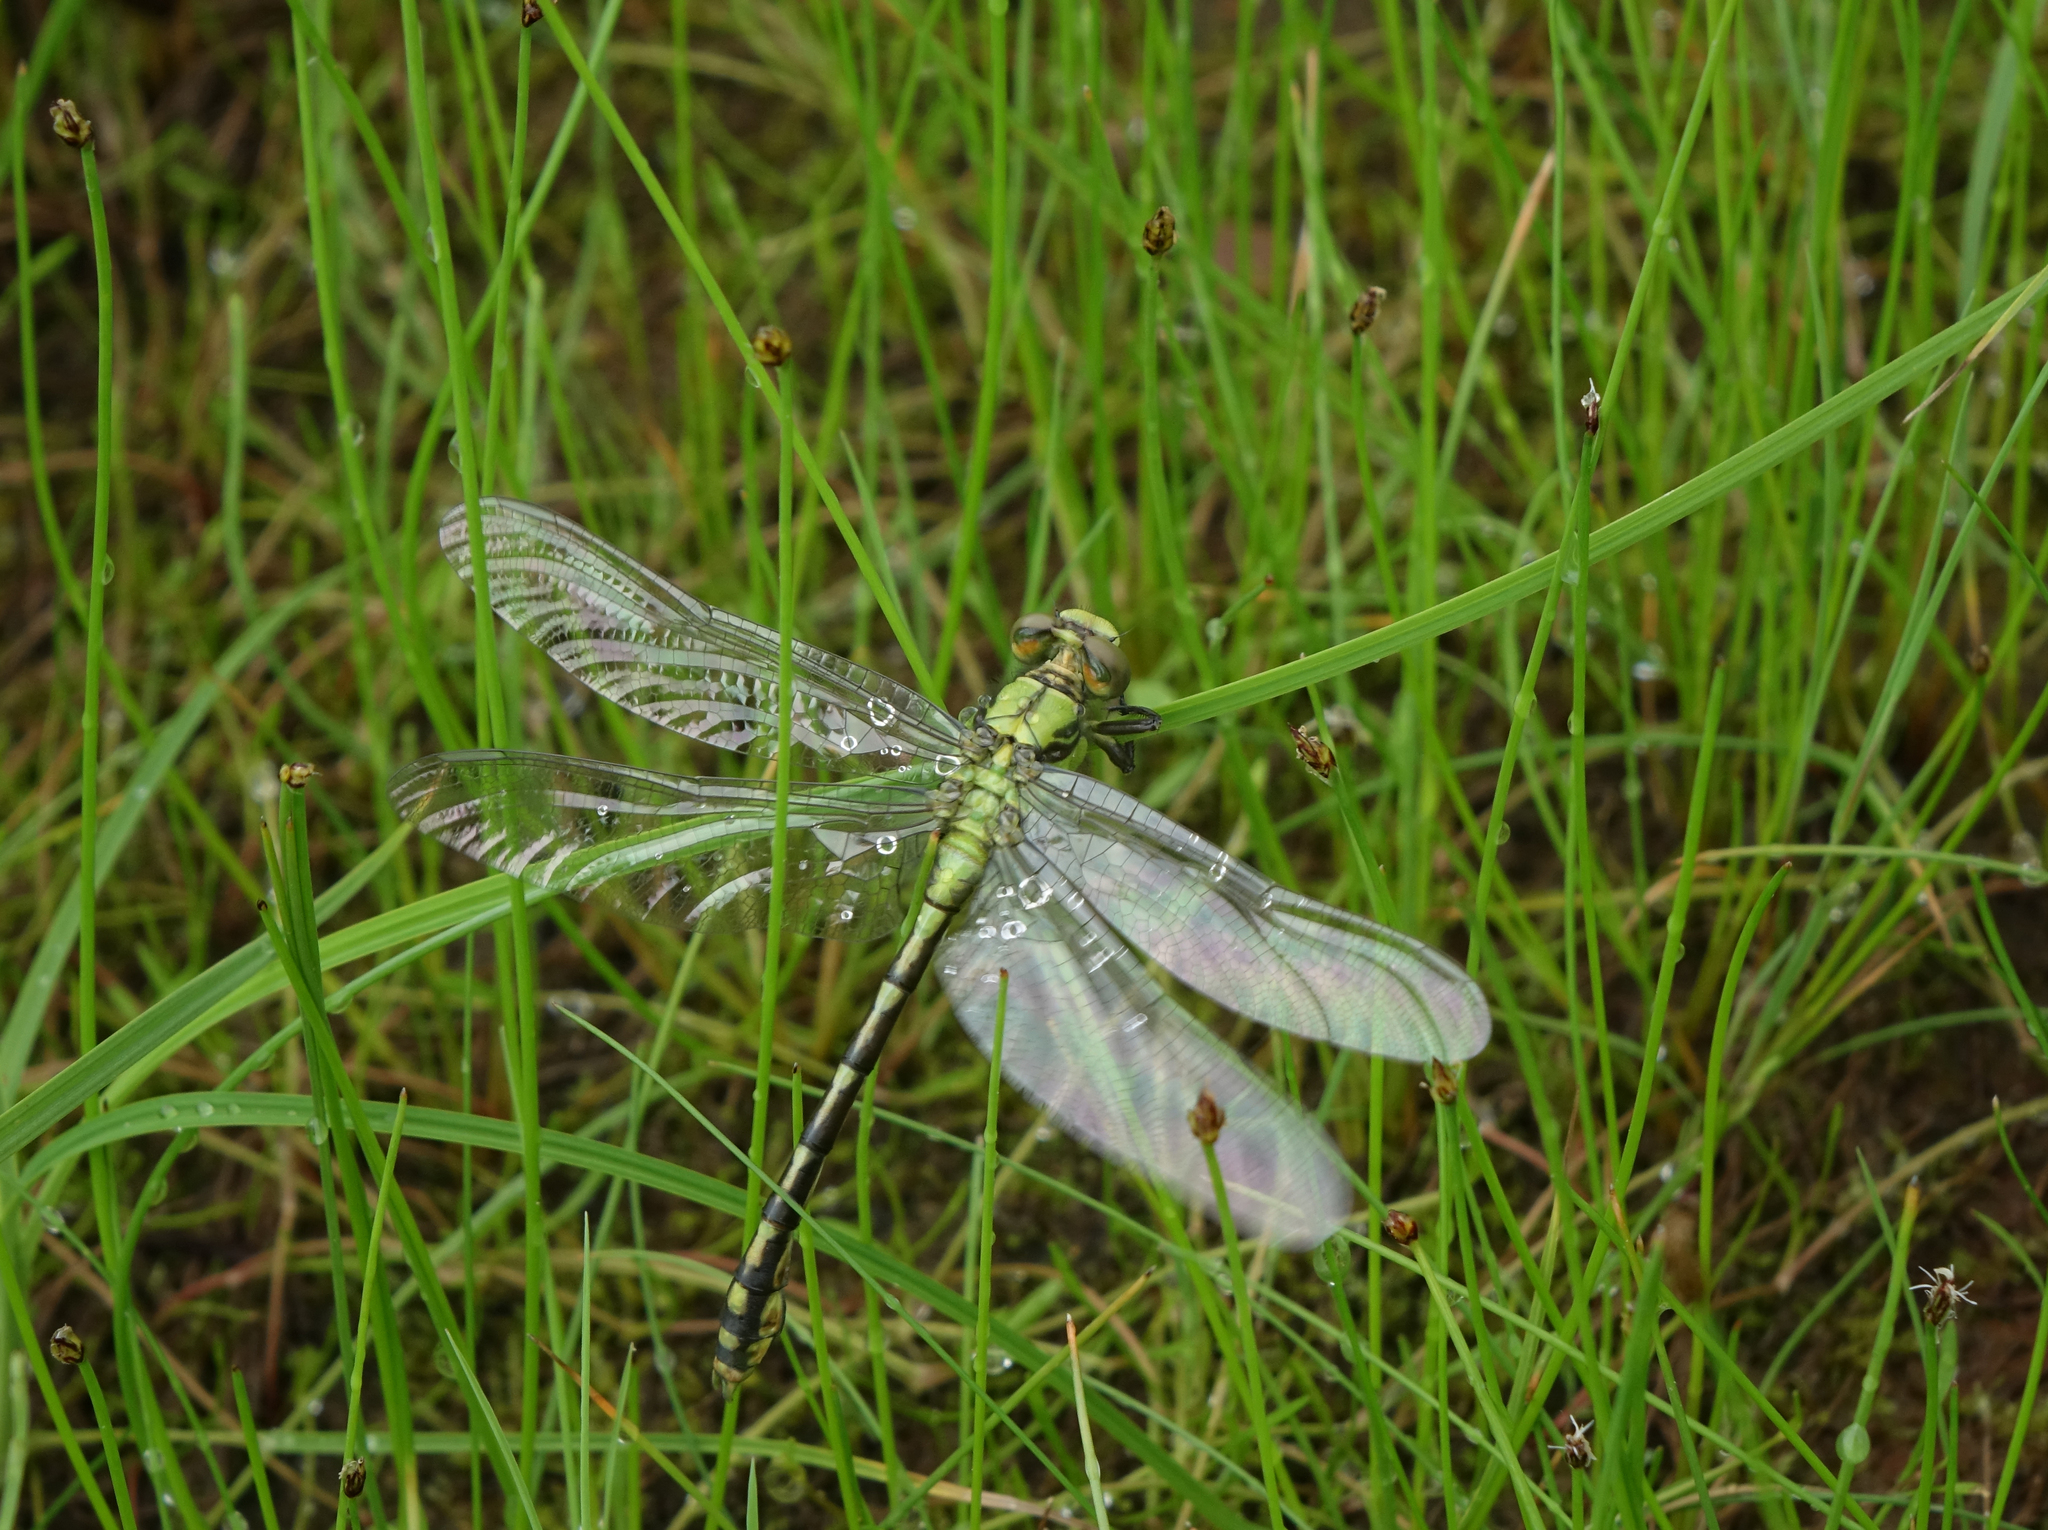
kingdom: Animalia
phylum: Arthropoda
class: Insecta
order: Odonata
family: Gomphidae
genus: Ophiogomphus
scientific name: Ophiogomphus obscurus
